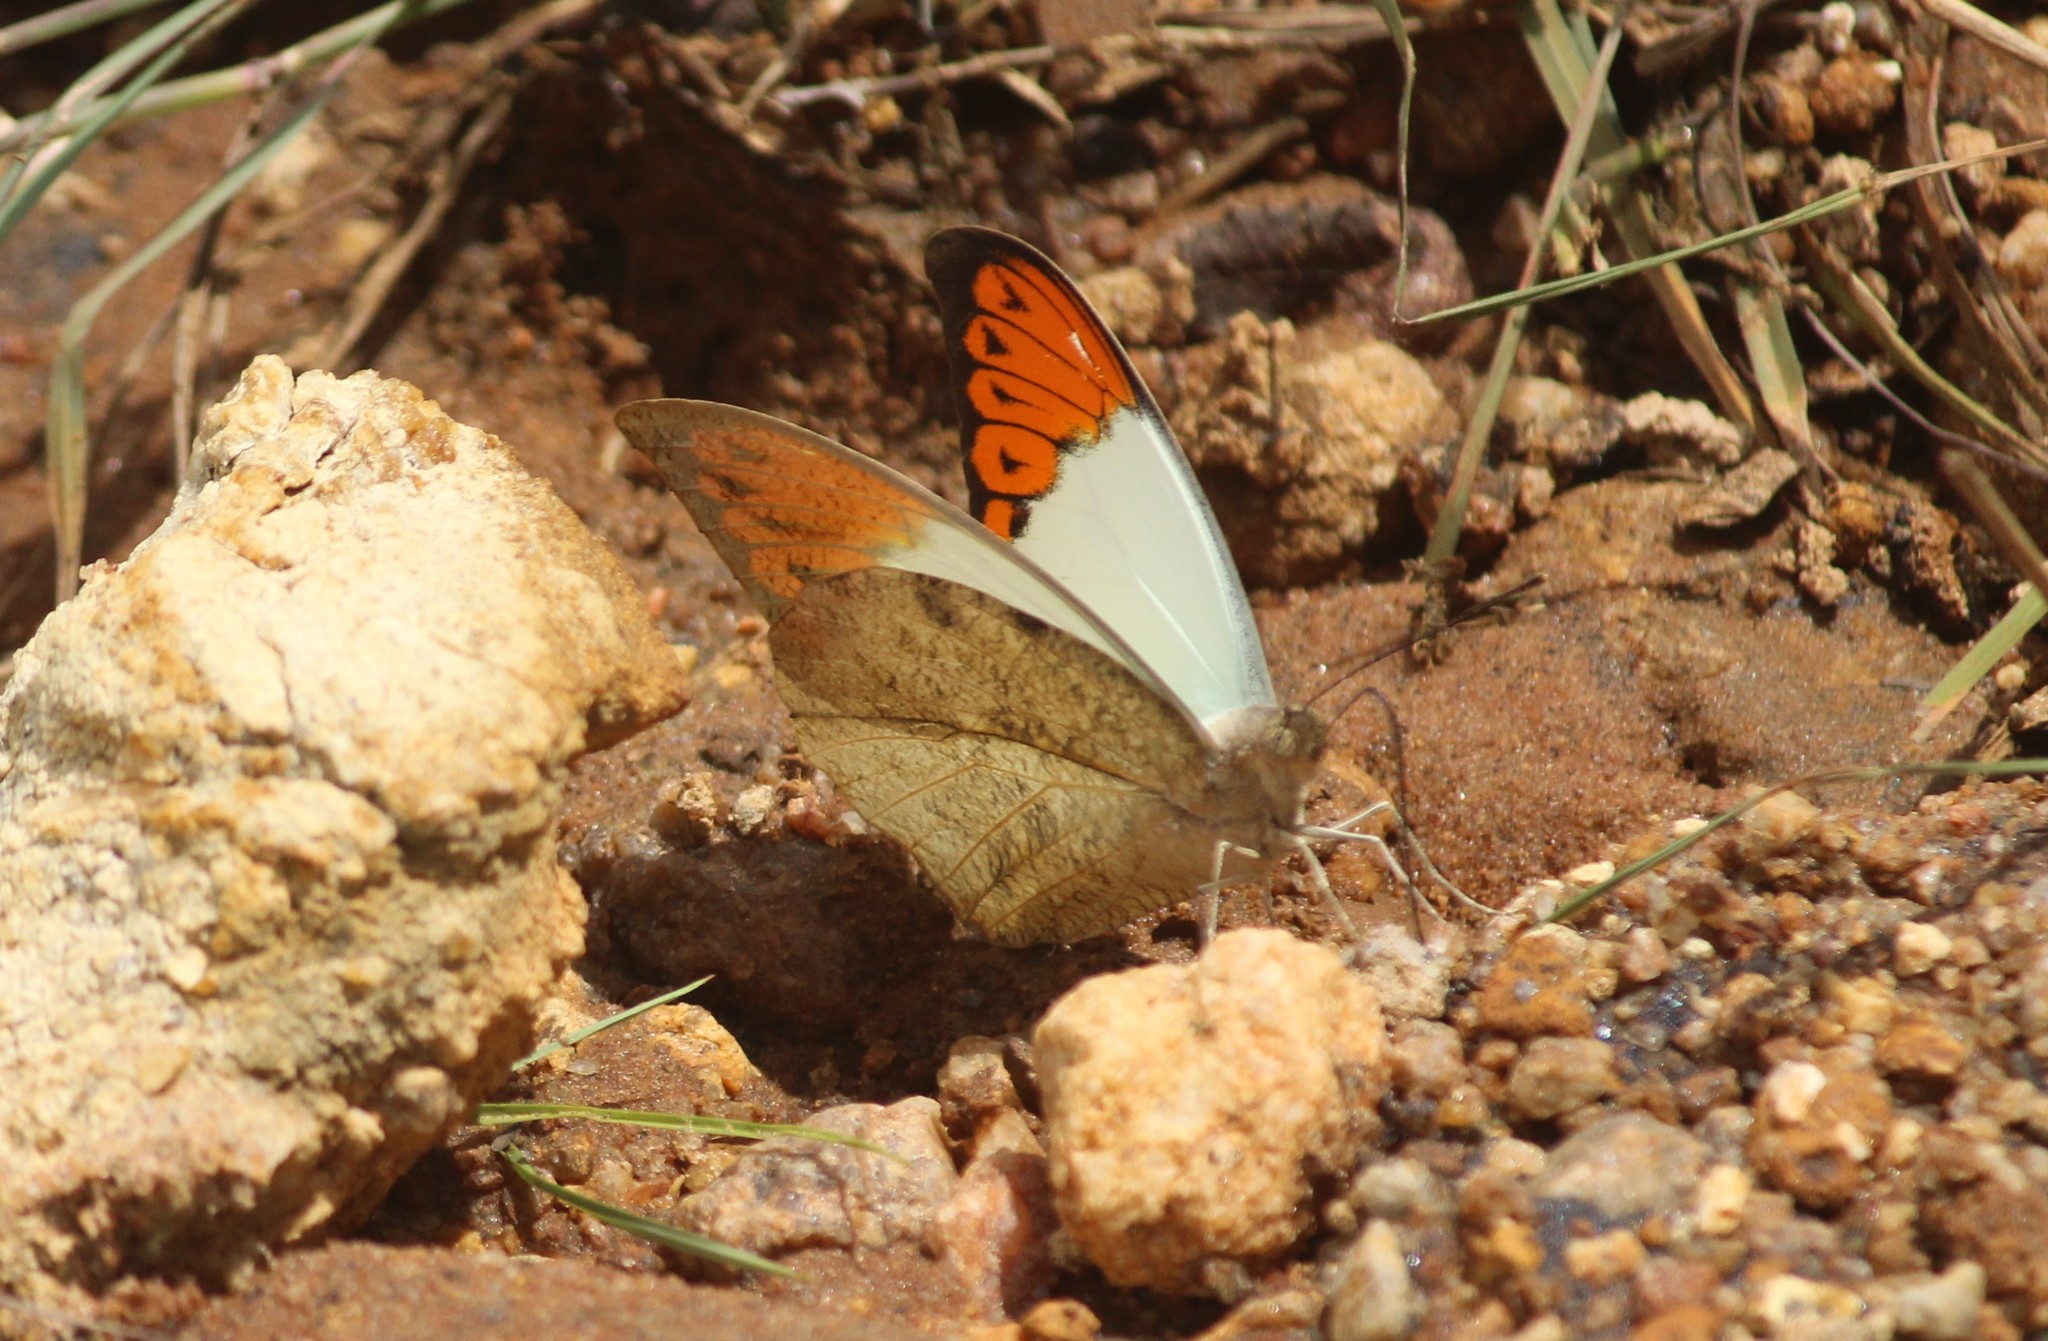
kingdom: Animalia
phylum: Arthropoda
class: Insecta
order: Lepidoptera
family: Pieridae
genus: Hebomoia
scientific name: Hebomoia glaucippe
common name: Great orange tip
